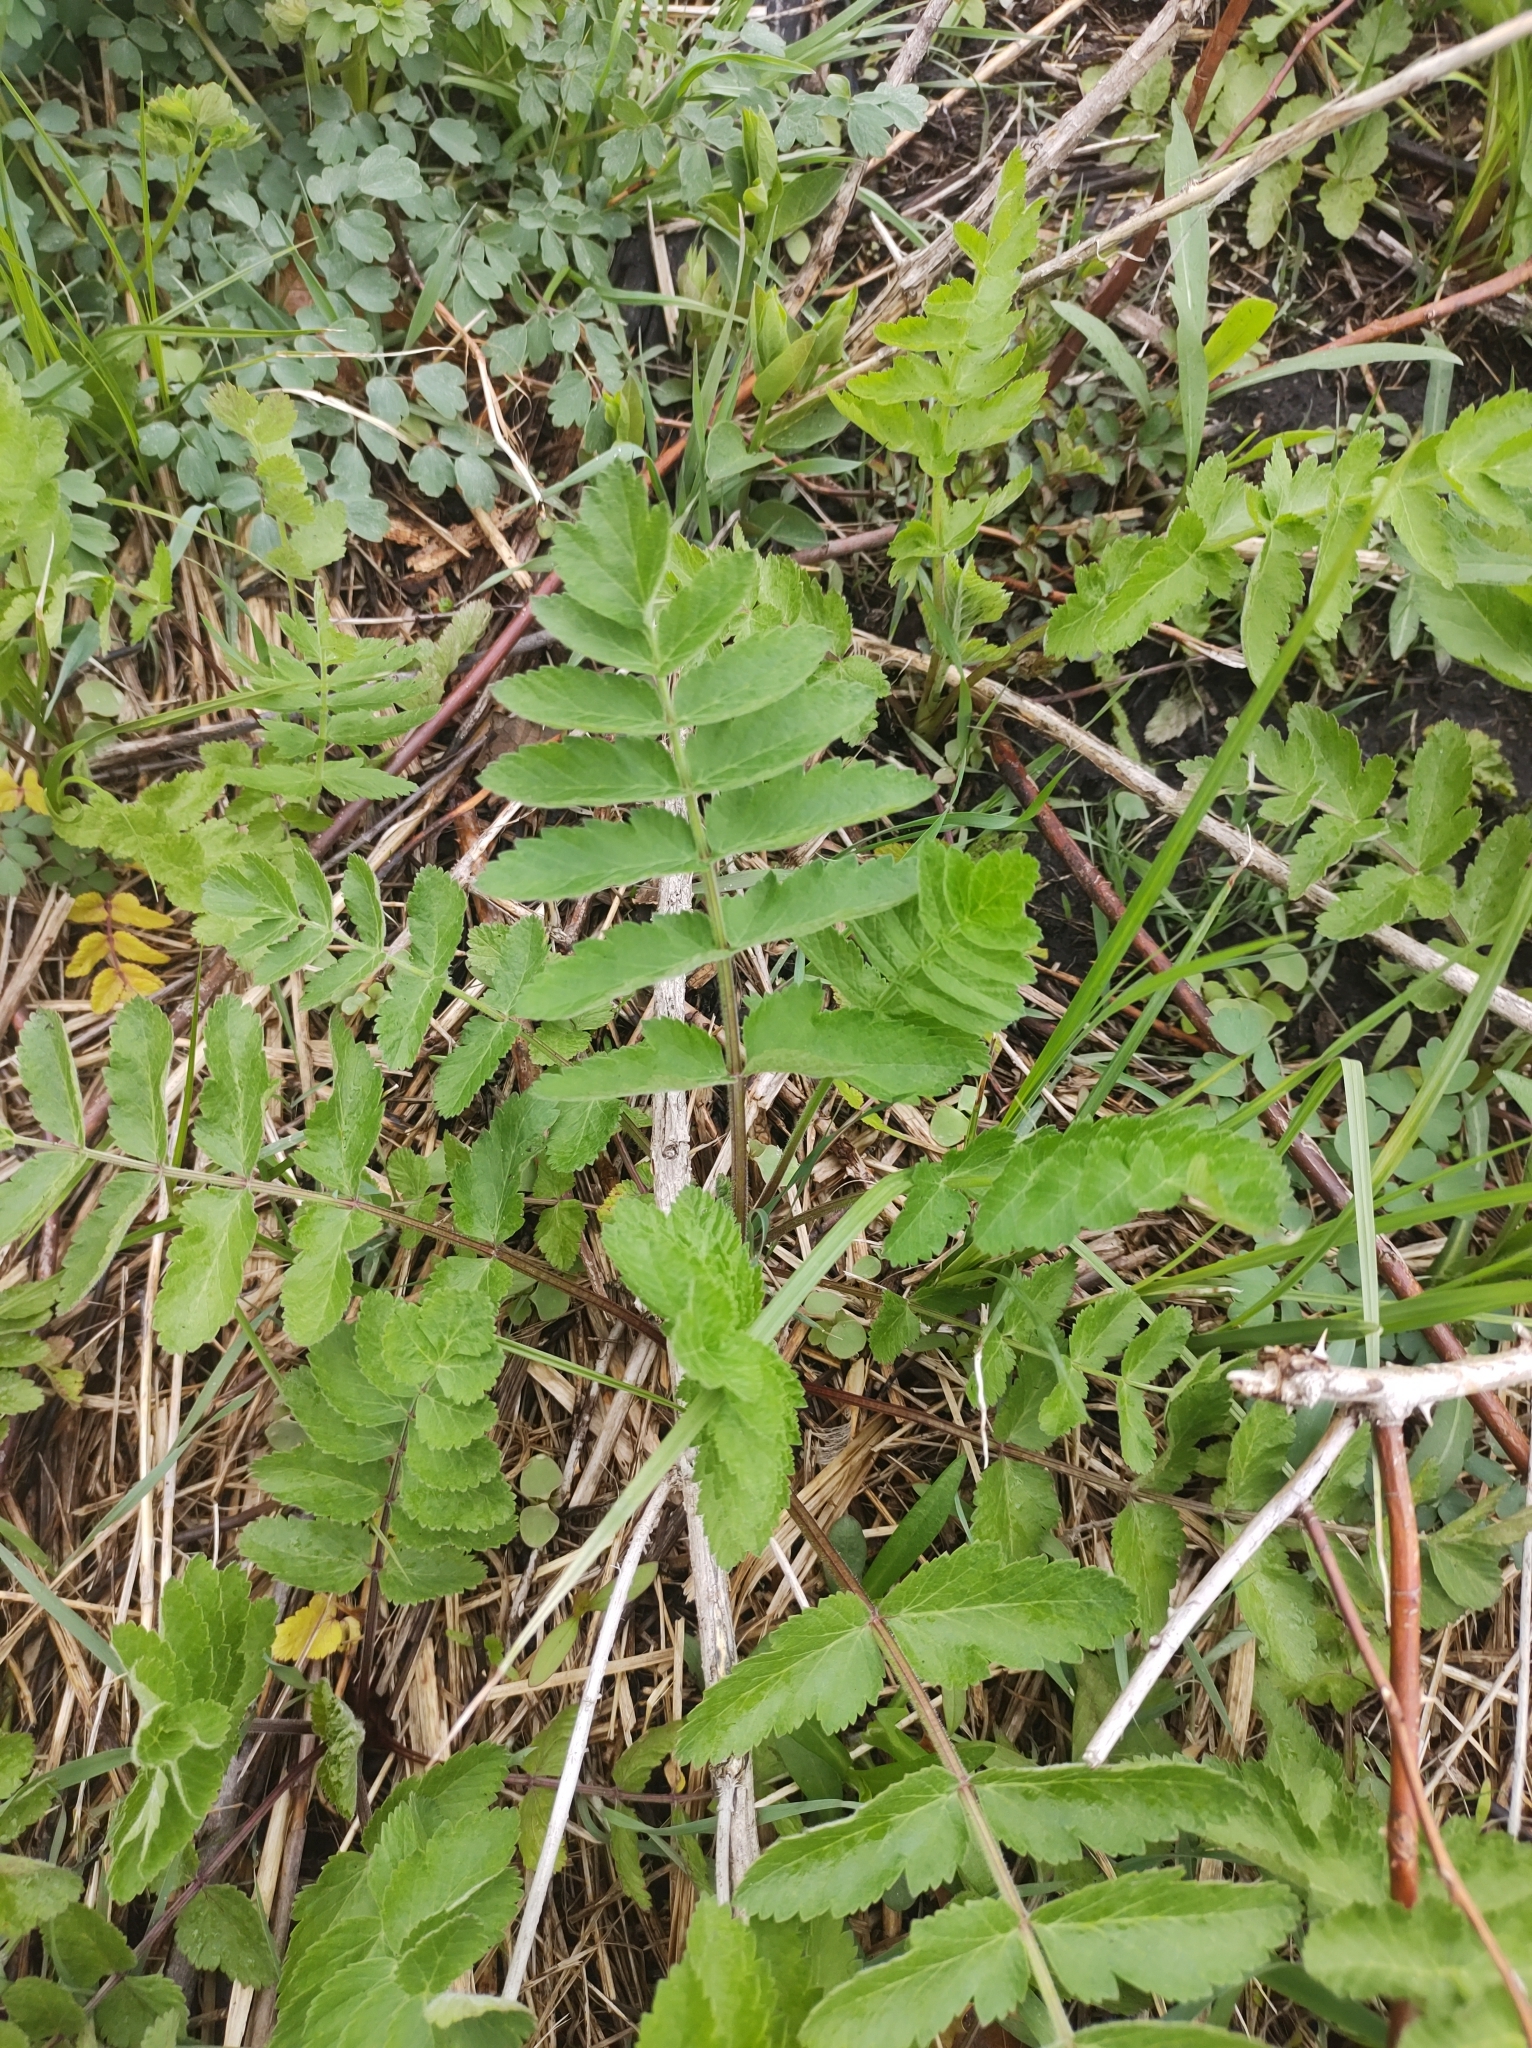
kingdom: Plantae
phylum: Tracheophyta
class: Magnoliopsida
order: Apiales
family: Apiaceae
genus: Pastinaca
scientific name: Pastinaca sativa
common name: Wild parsnip
